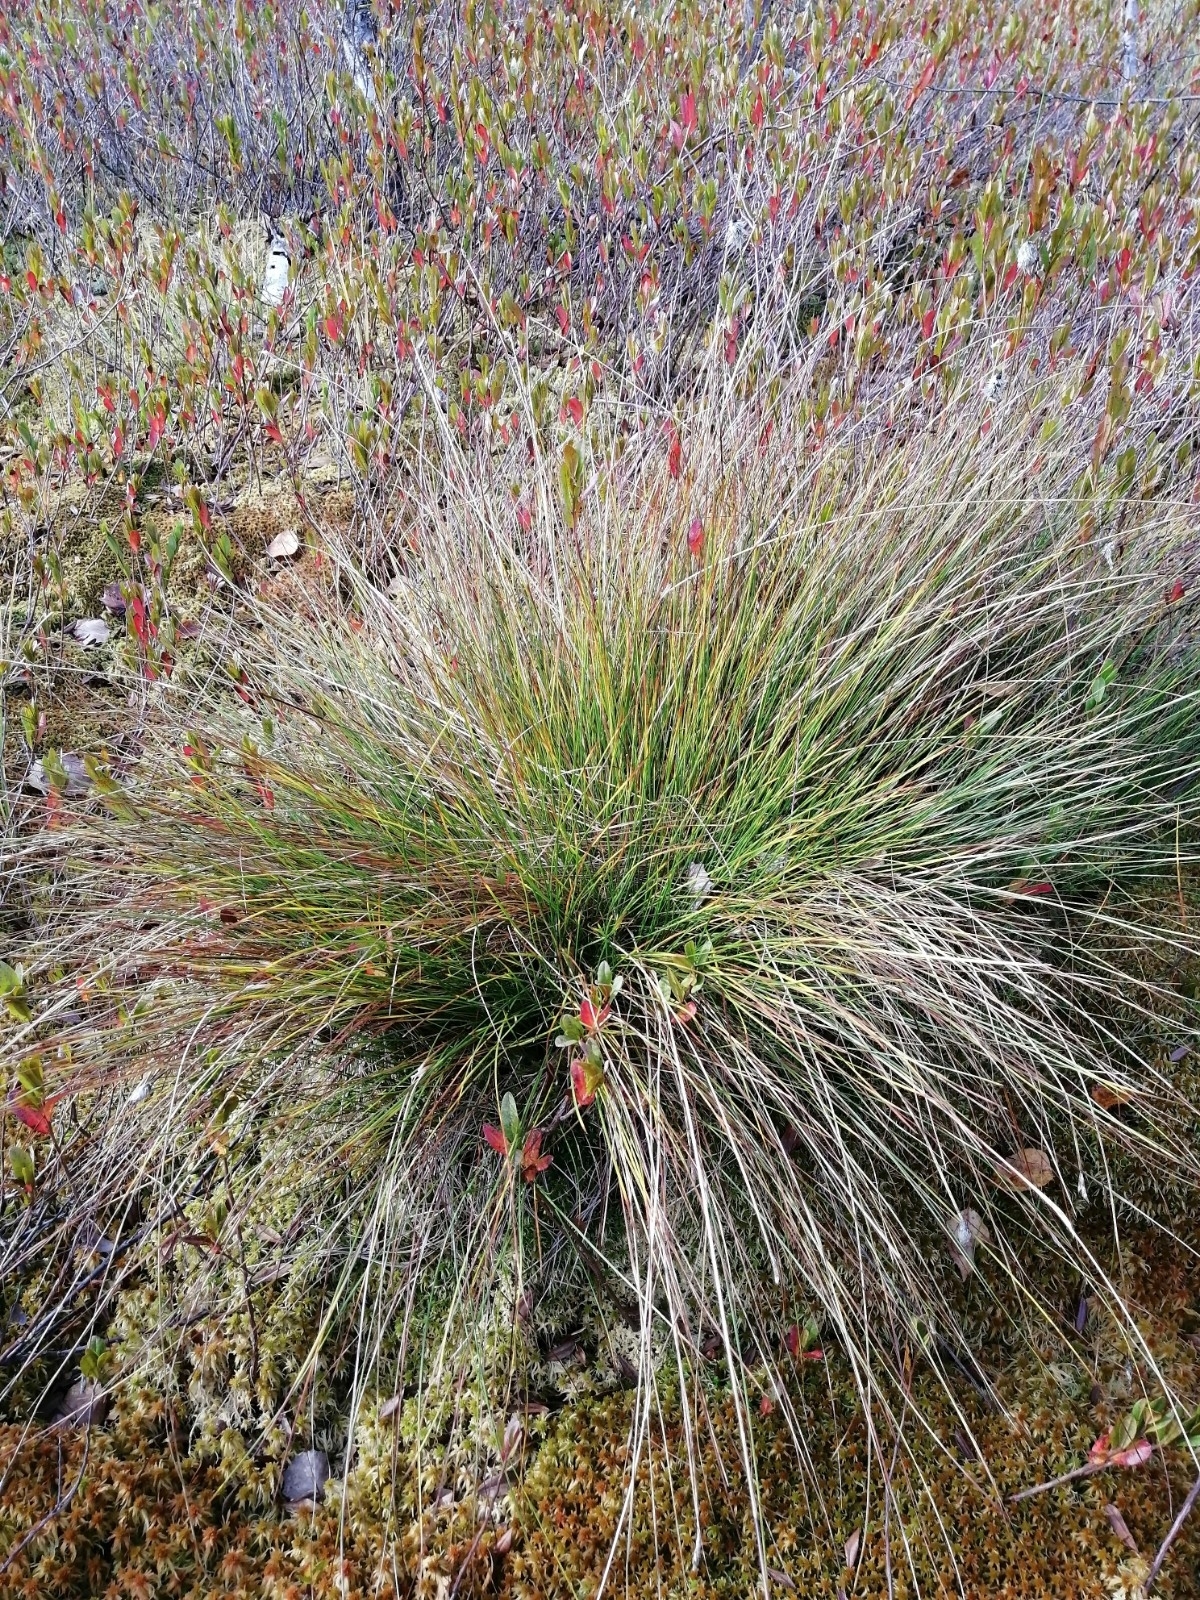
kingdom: Plantae
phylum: Tracheophyta
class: Liliopsida
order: Poales
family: Cyperaceae
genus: Eriophorum
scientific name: Eriophorum vaginatum
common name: Hare's-tail cottongrass
